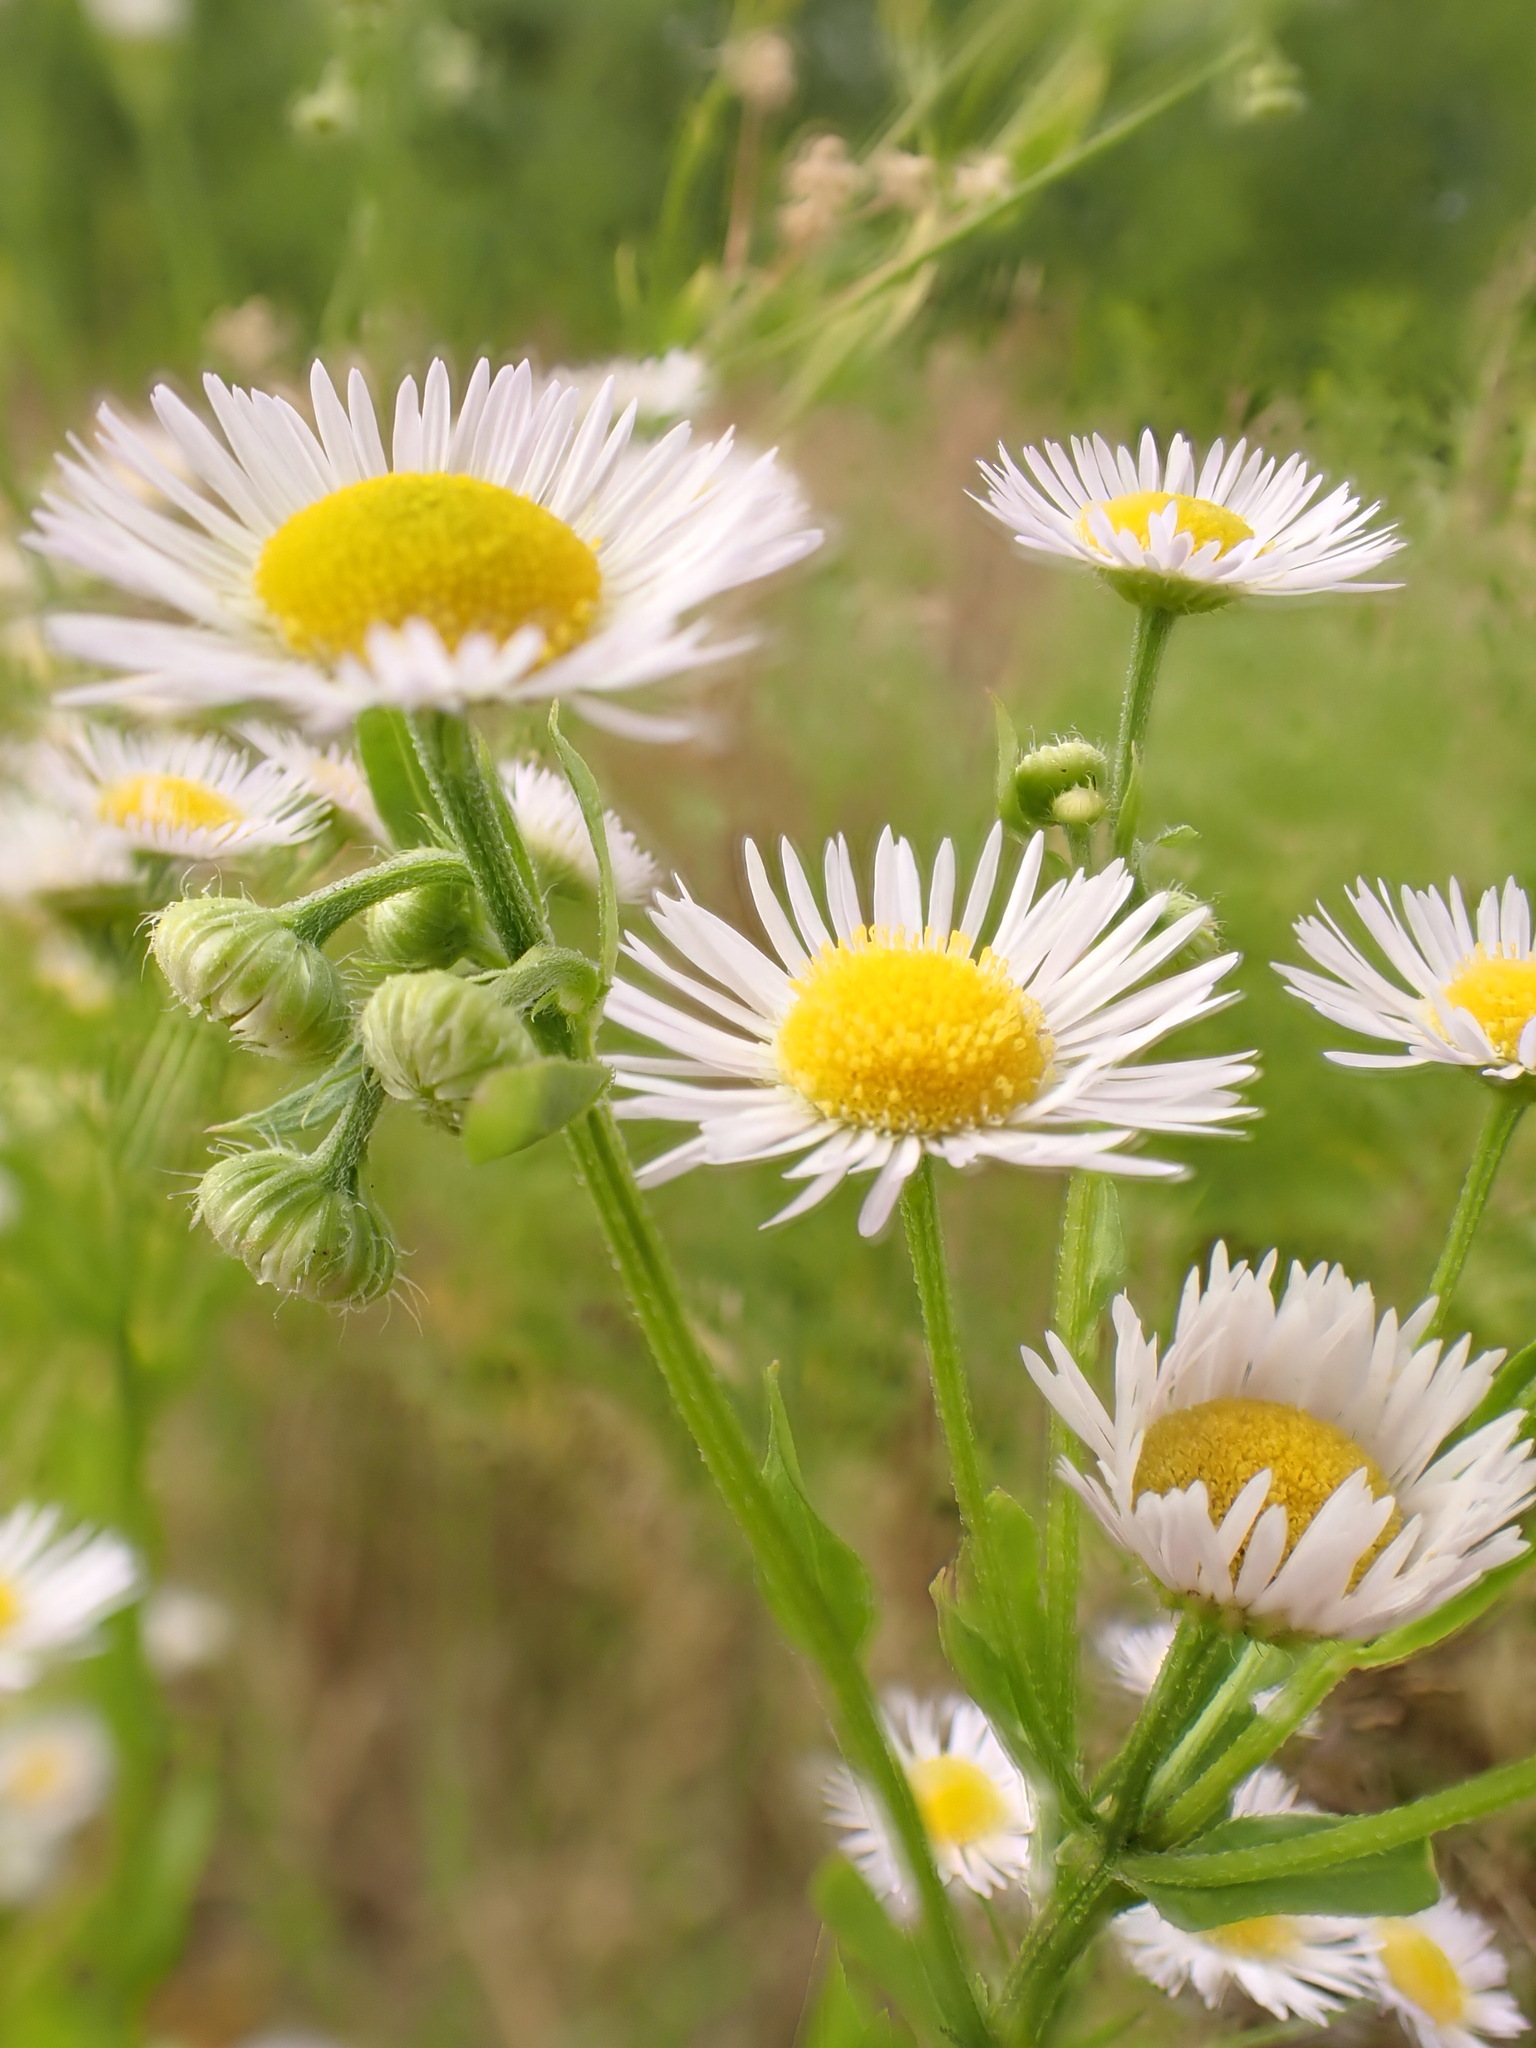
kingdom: Plantae
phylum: Tracheophyta
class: Magnoliopsida
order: Asterales
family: Asteraceae
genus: Erigeron
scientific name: Erigeron annuus
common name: Tall fleabane
